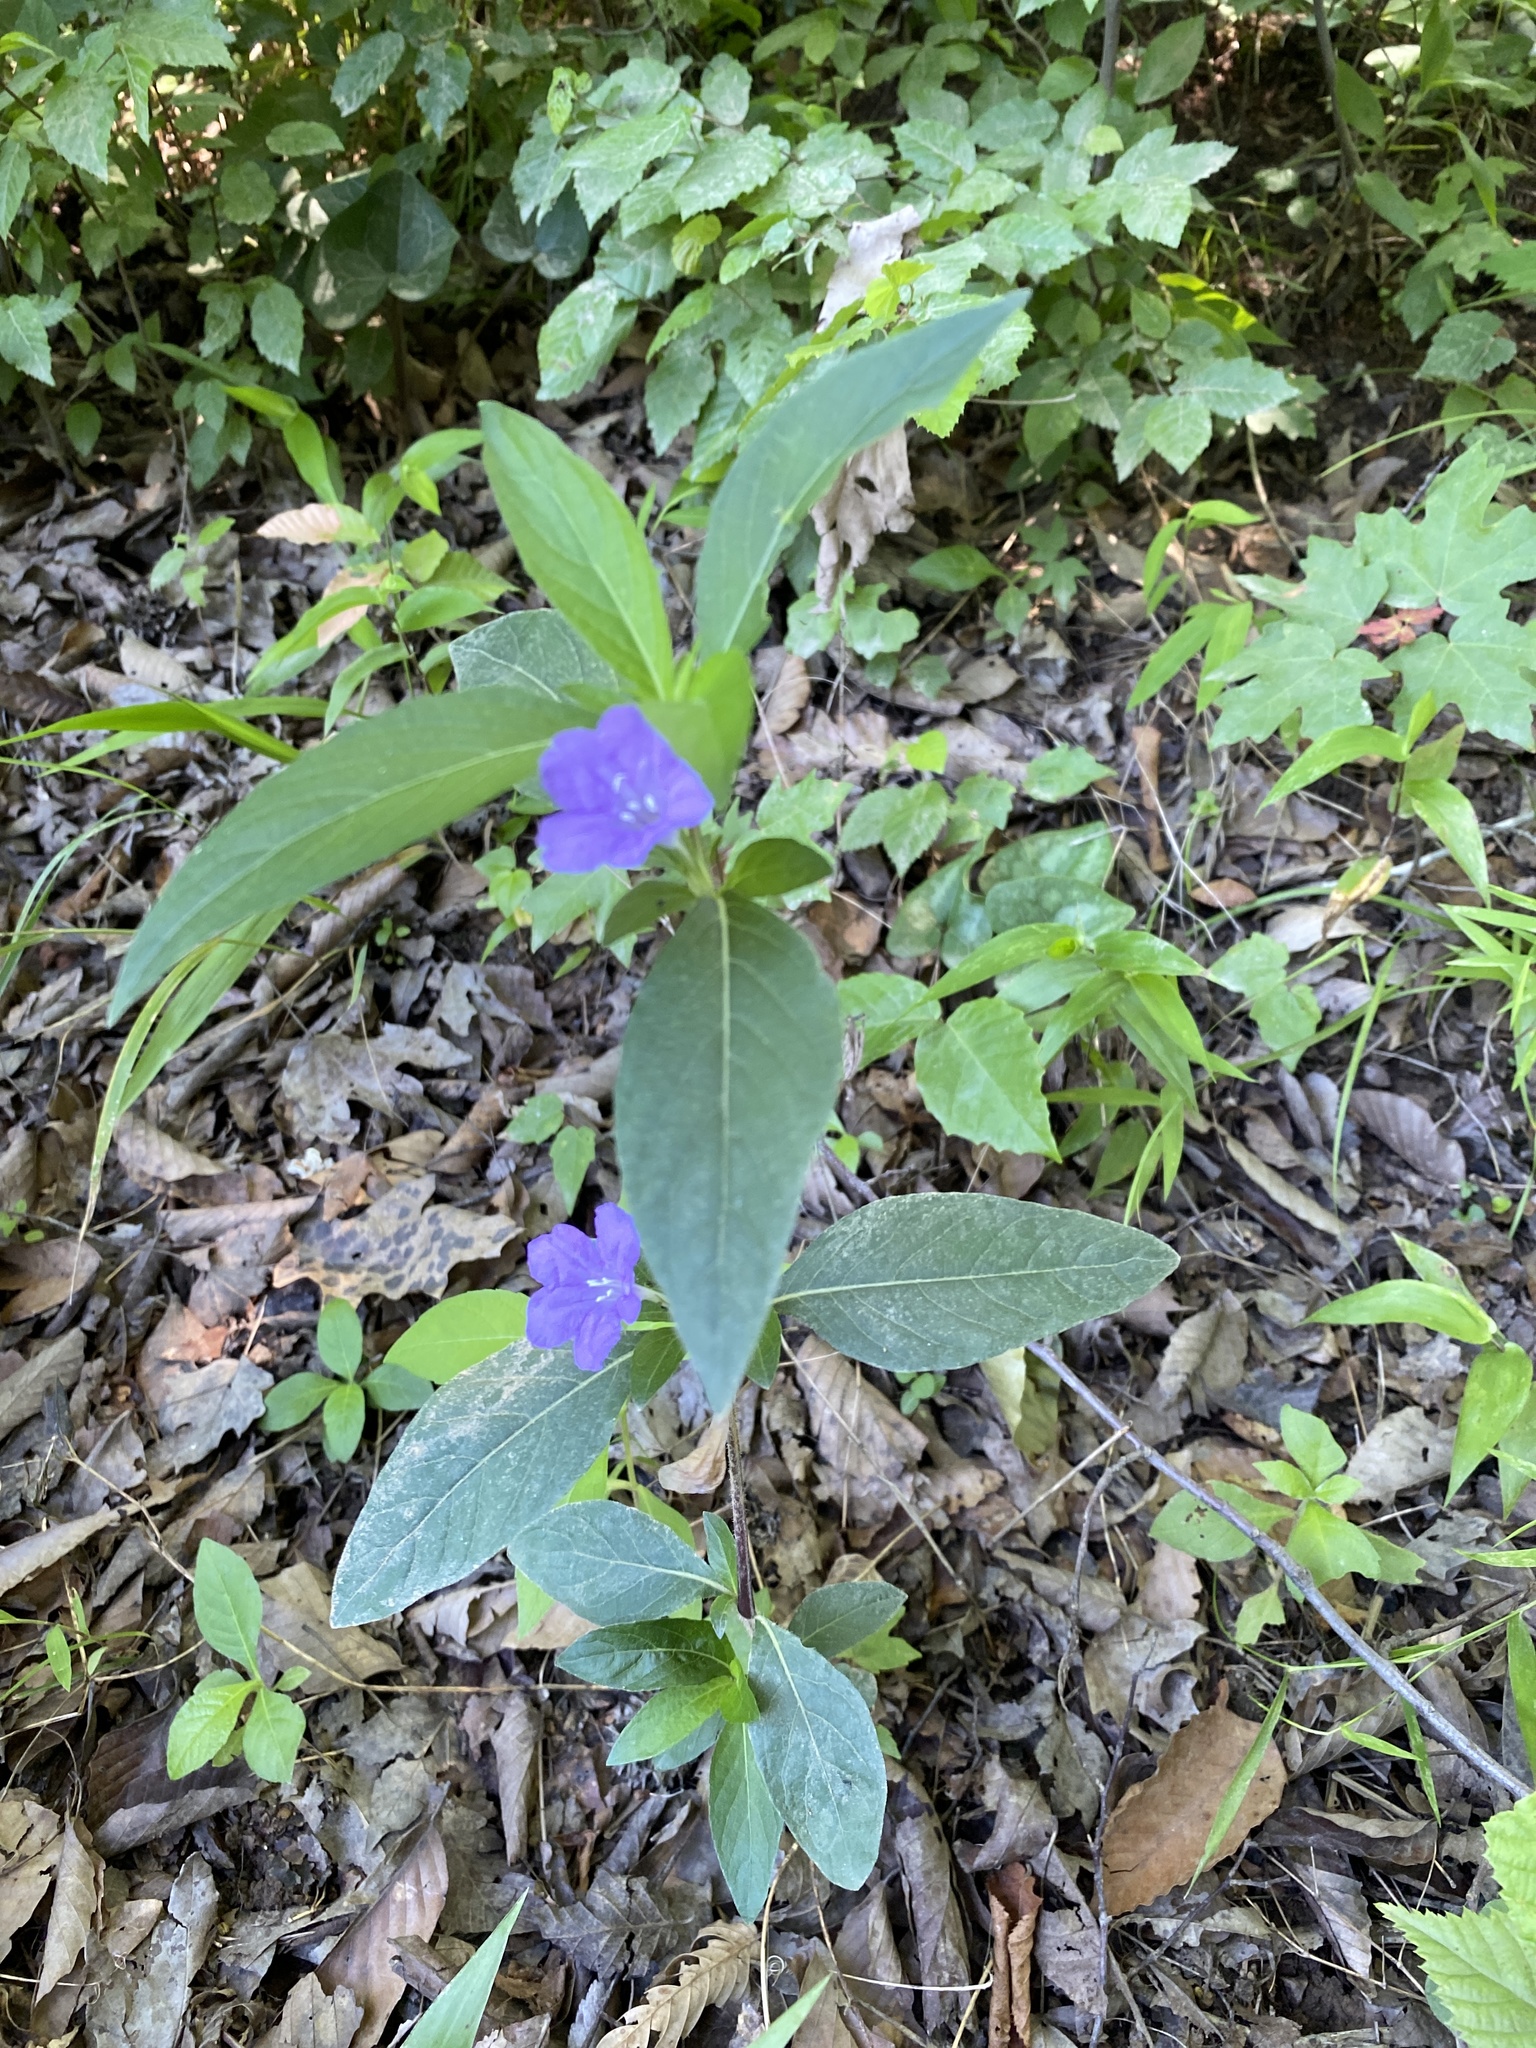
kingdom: Plantae
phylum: Tracheophyta
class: Magnoliopsida
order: Lamiales
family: Acanthaceae
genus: Ruellia
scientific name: Ruellia caroliniensis
